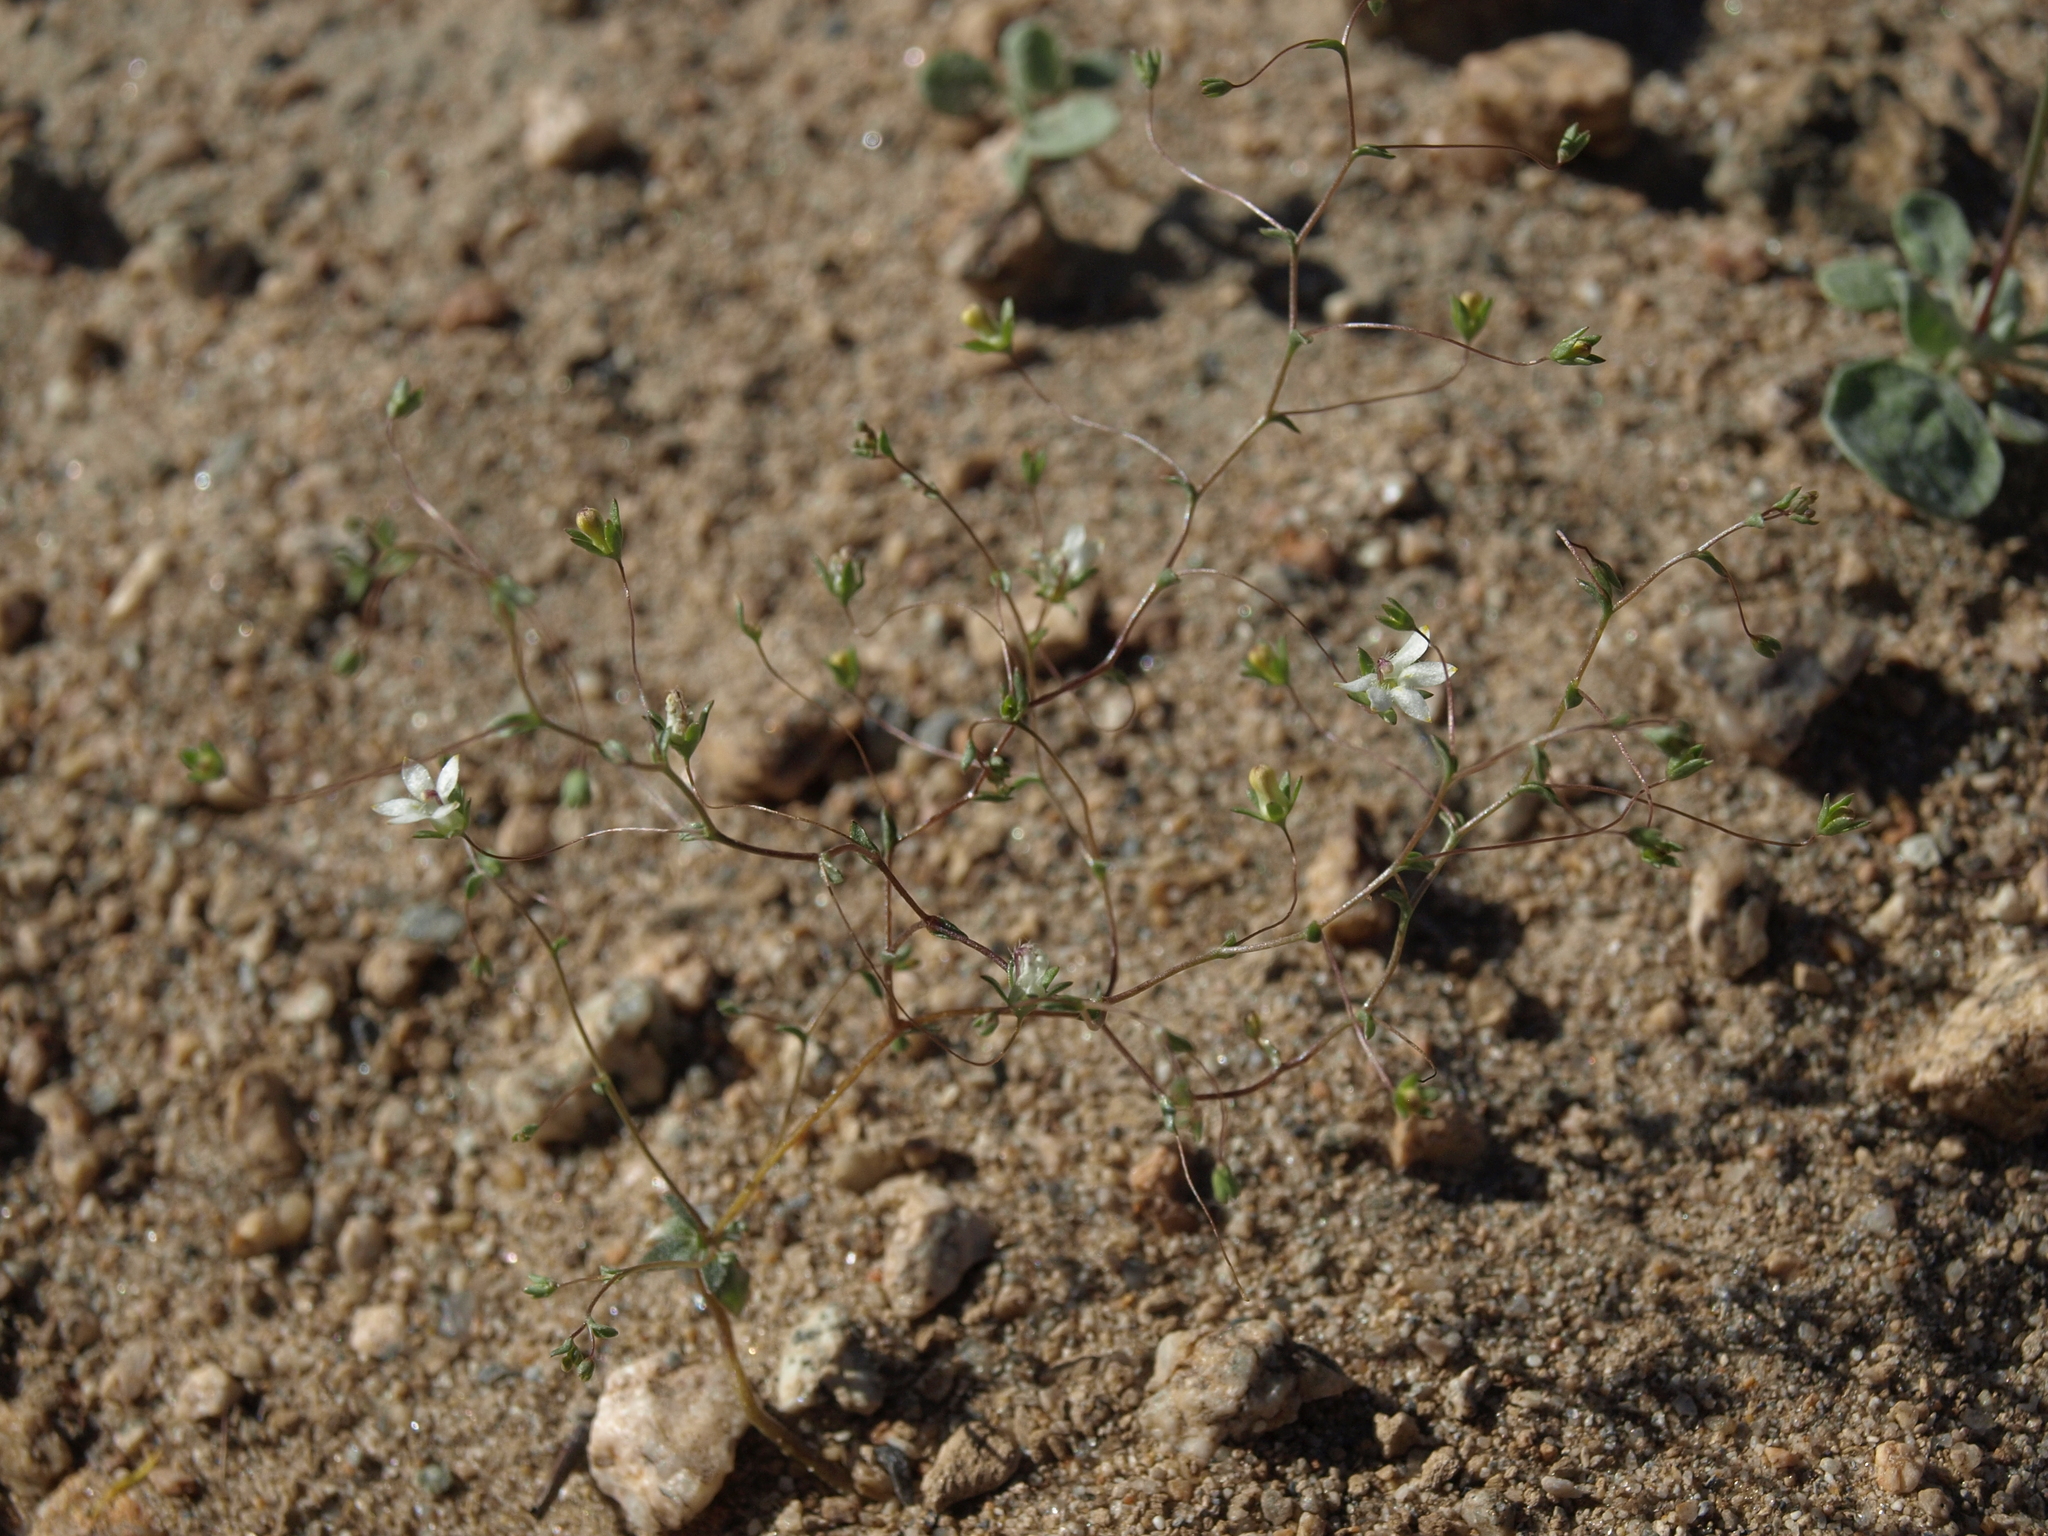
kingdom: Plantae
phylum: Tracheophyta
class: Magnoliopsida
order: Asterales
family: Campanulaceae
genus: Nemacladus
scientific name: Nemacladus matsonii
